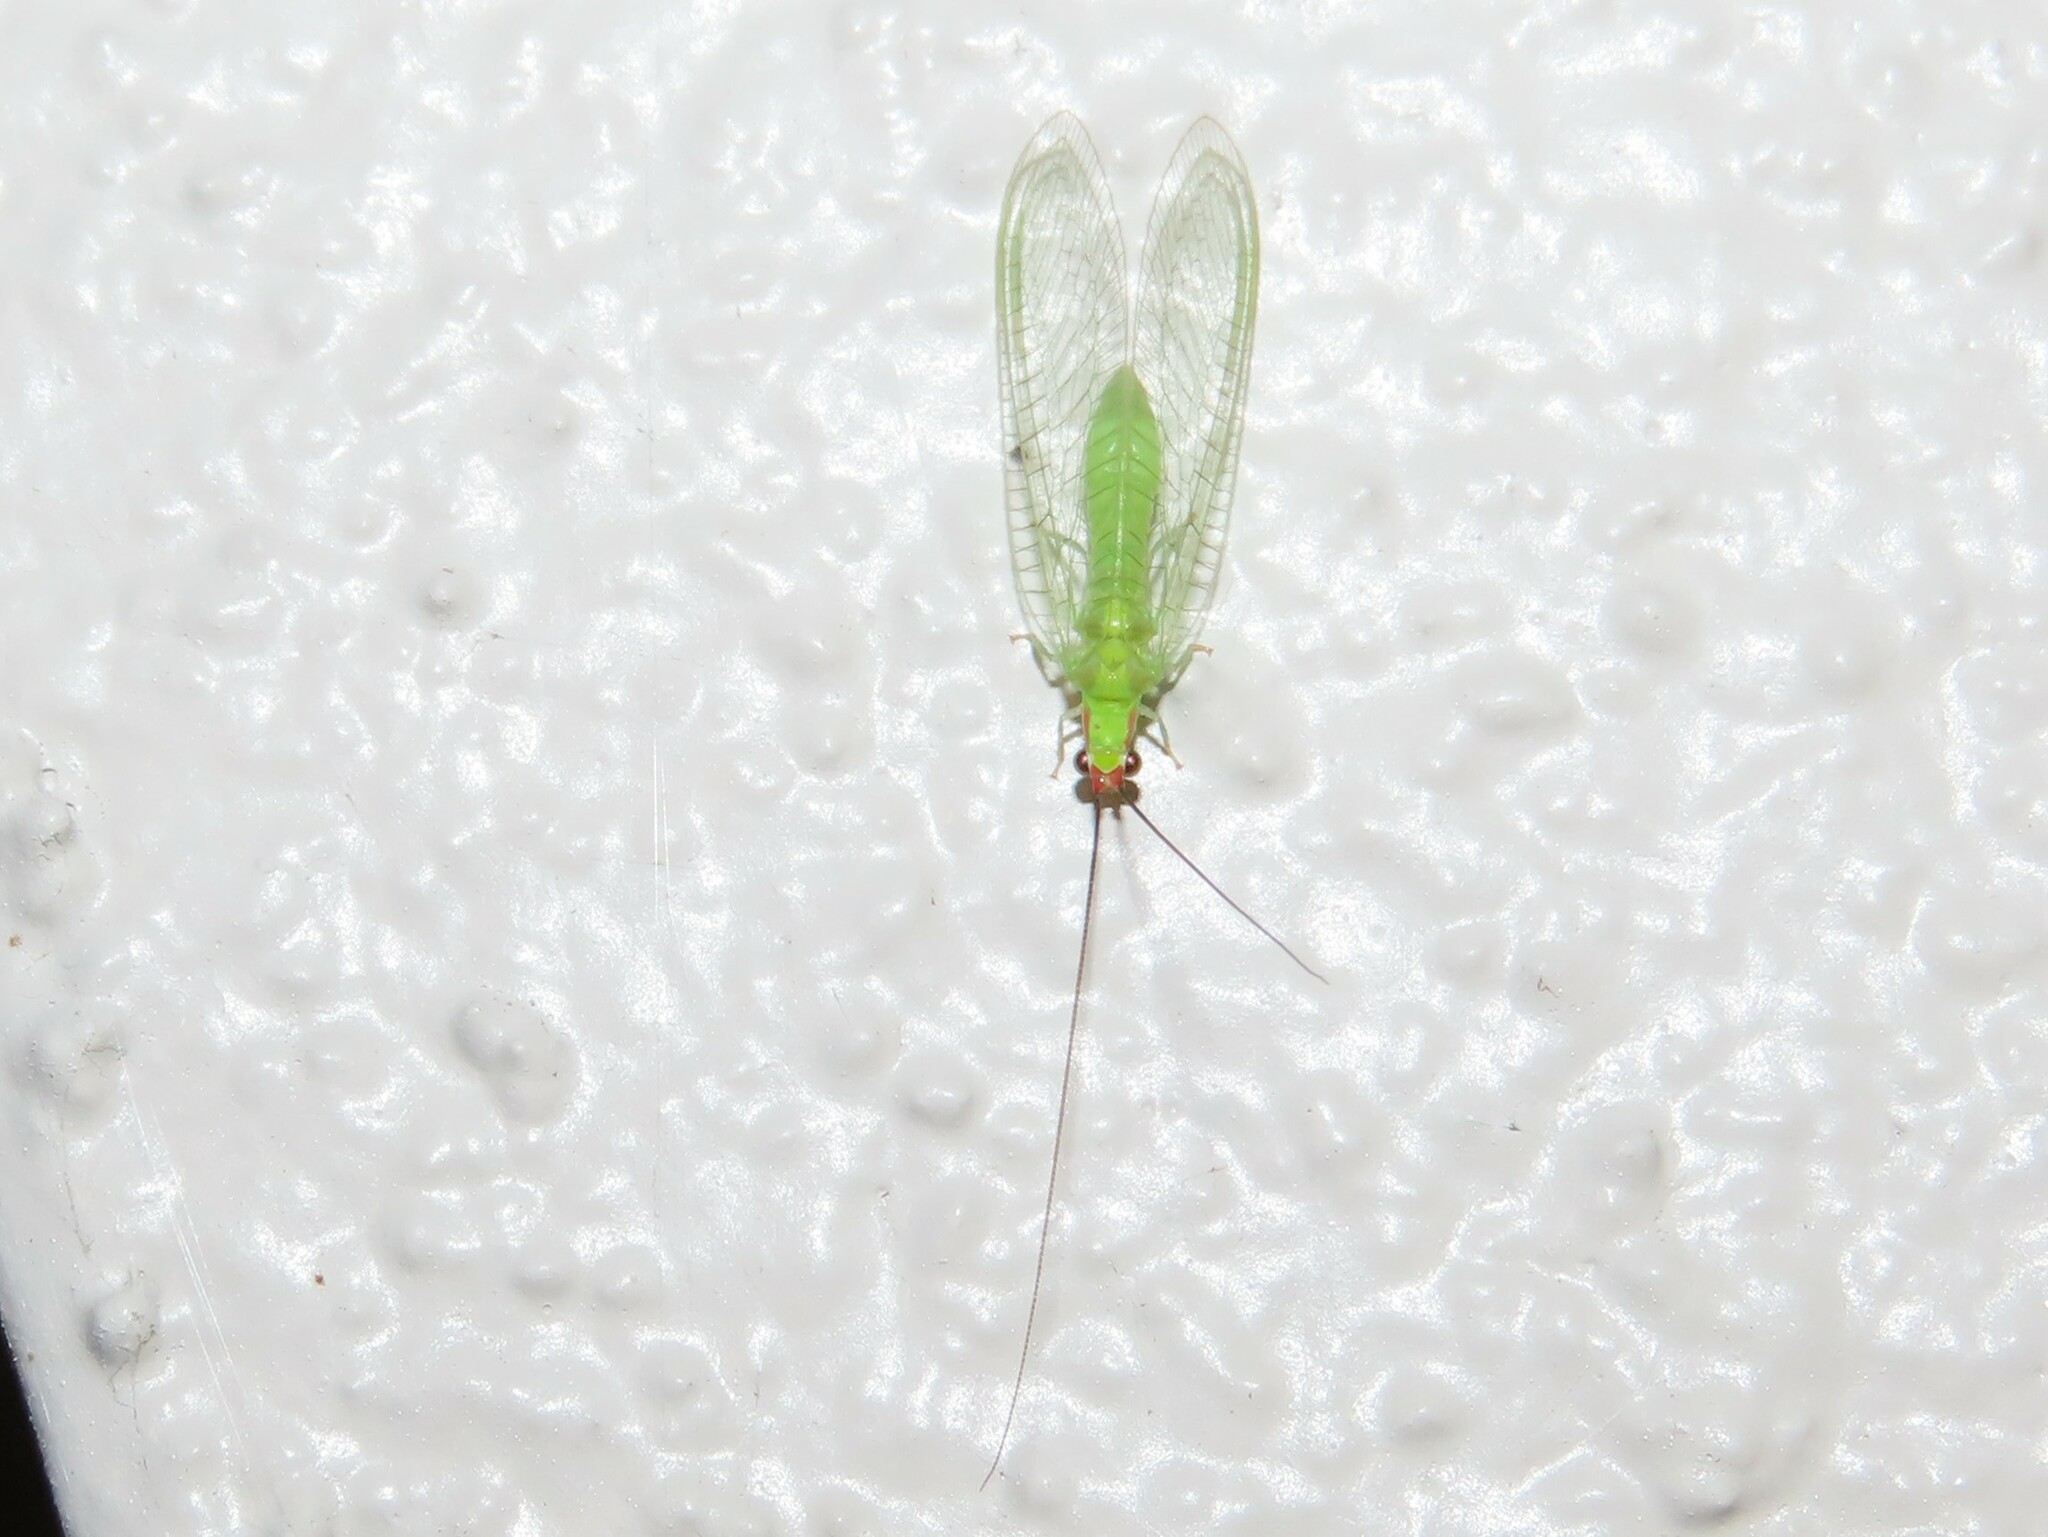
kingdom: Animalia
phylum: Arthropoda
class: Insecta
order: Neuroptera
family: Chrysopidae
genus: Ceraeochrysa
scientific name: Ceraeochrysa smithi
